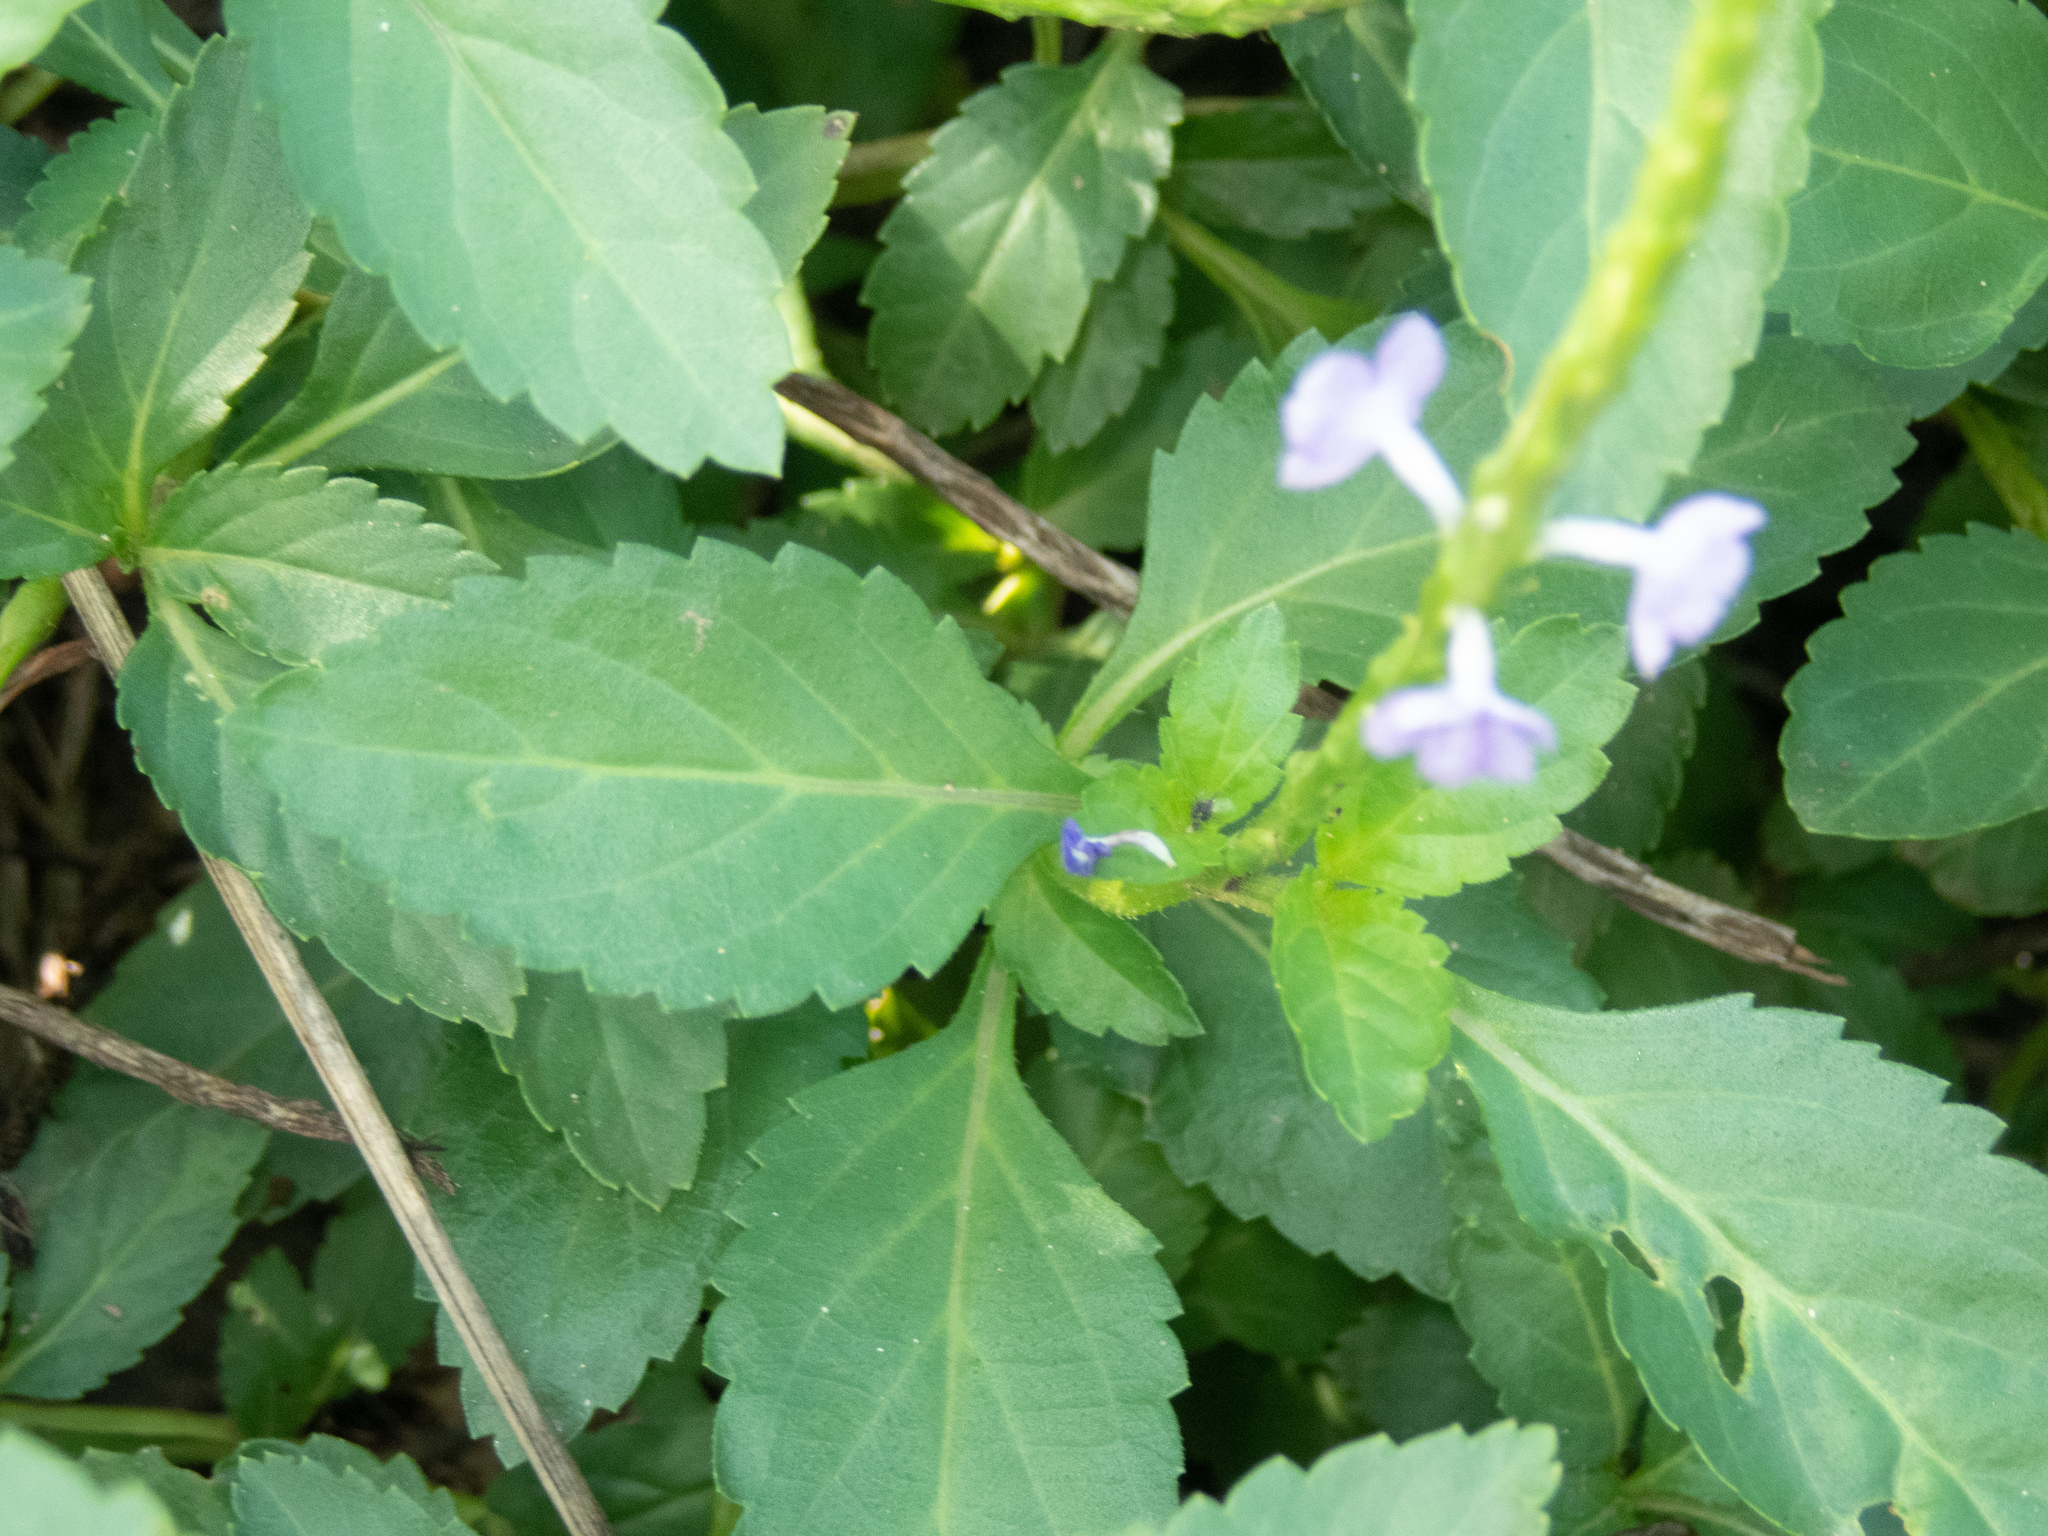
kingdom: Plantae
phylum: Tracheophyta
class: Magnoliopsida
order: Lamiales
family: Verbenaceae
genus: Stachytarpheta
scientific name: Stachytarpheta jamaicensis
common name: Light-blue snakeweed
